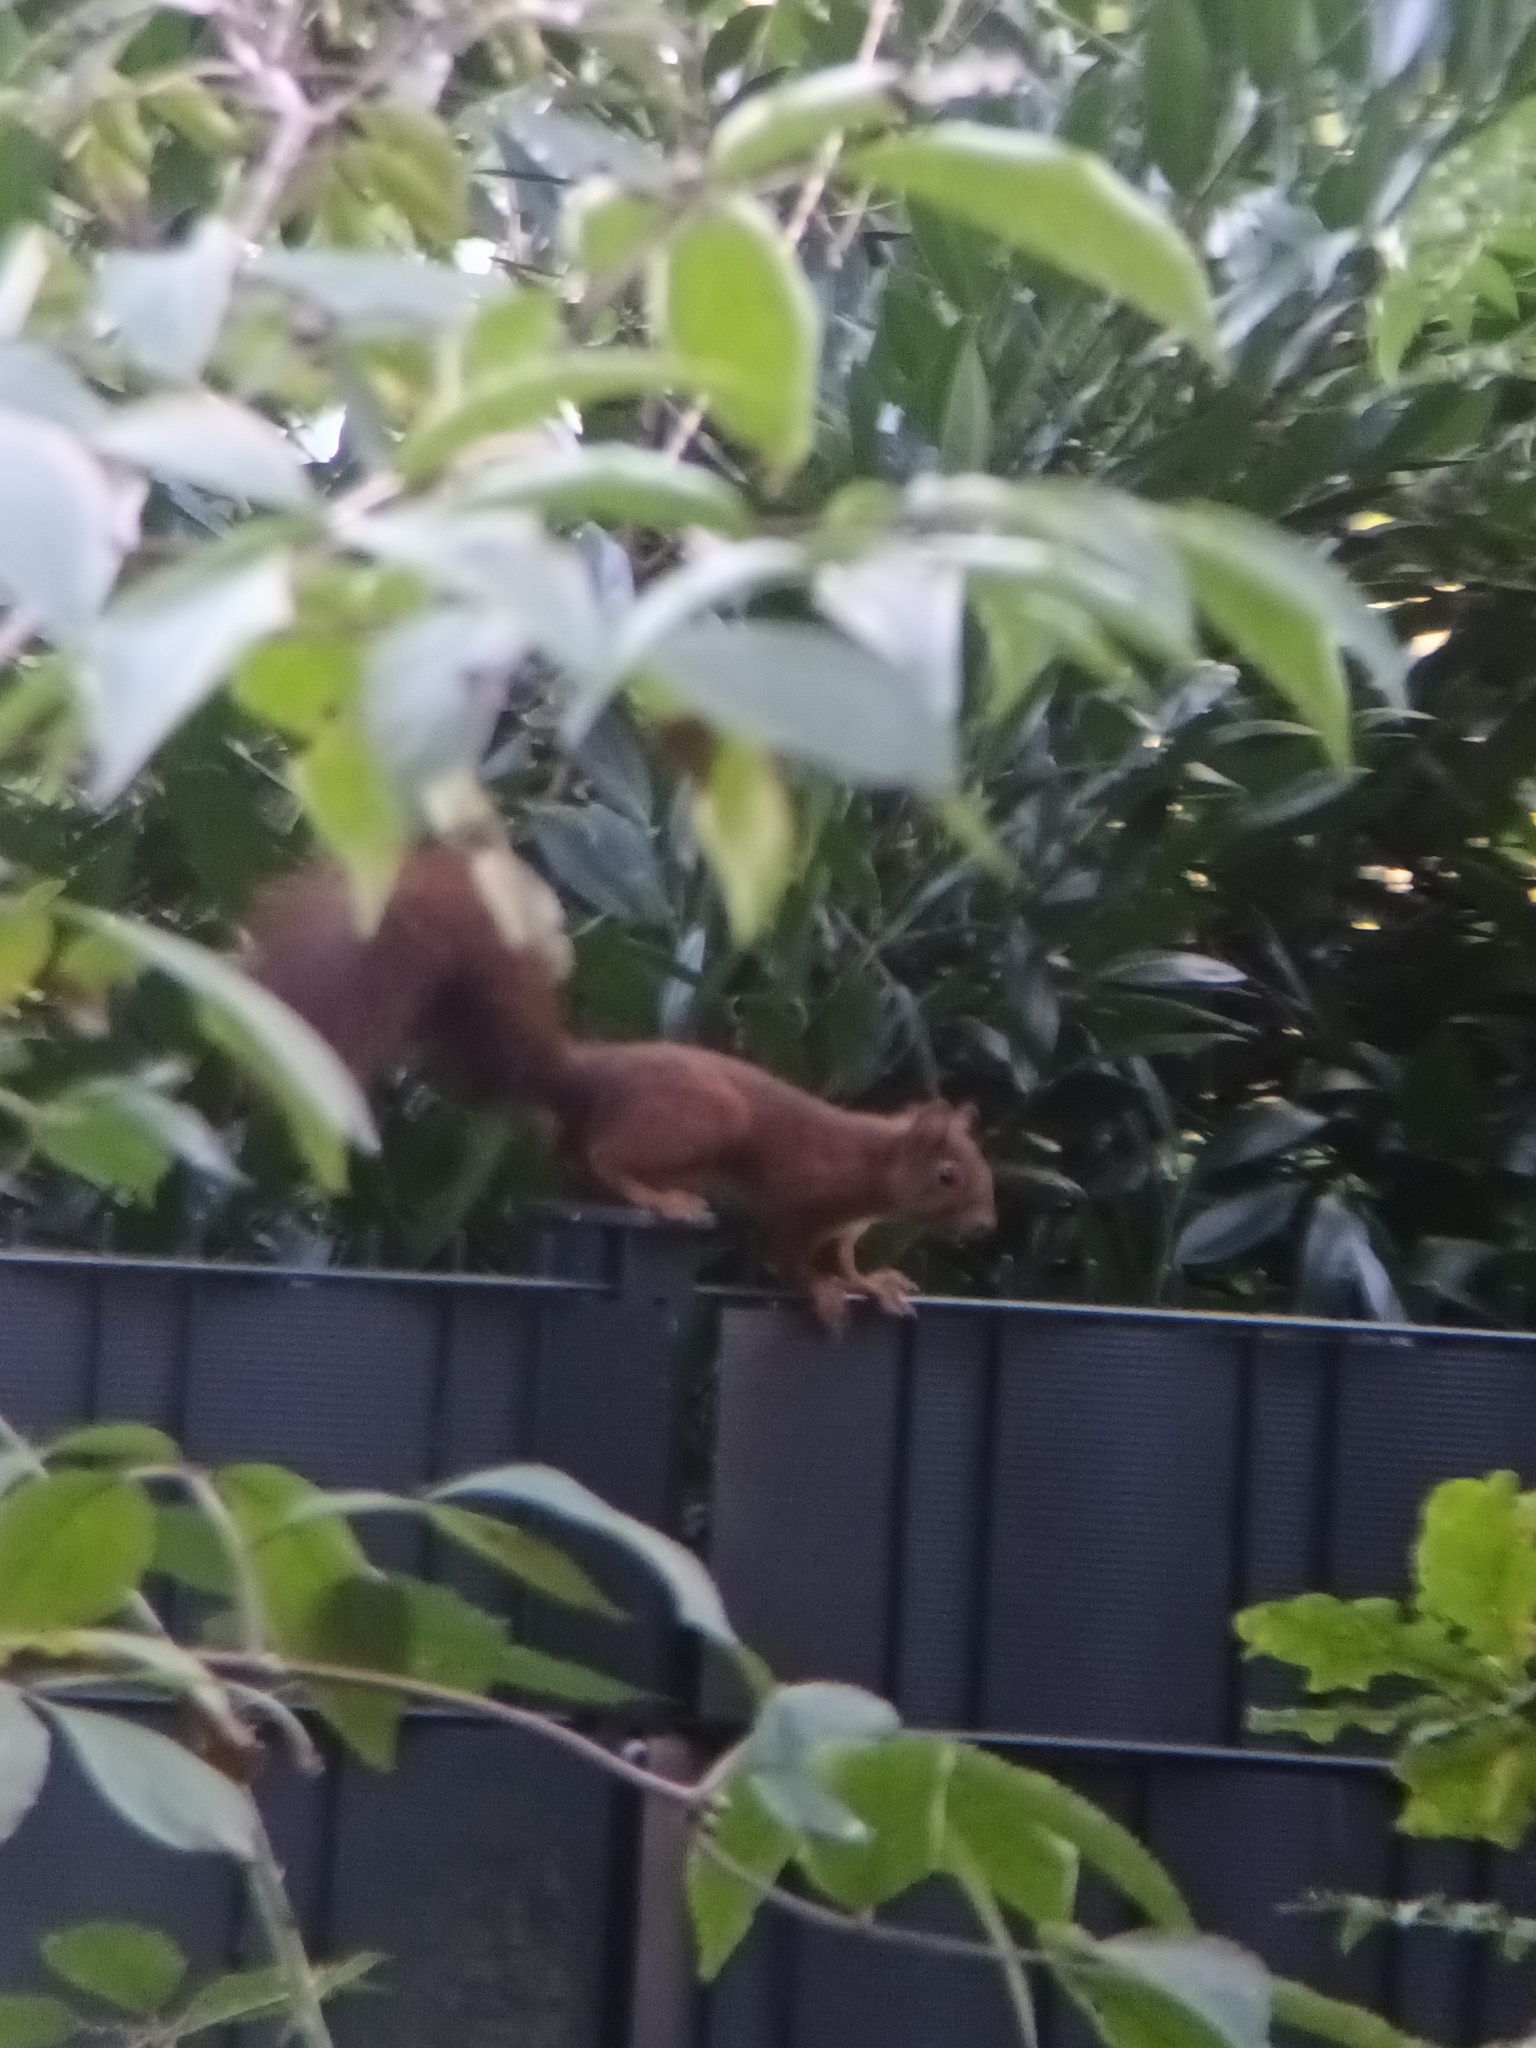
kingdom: Animalia
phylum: Chordata
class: Mammalia
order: Rodentia
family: Sciuridae
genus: Sciurus
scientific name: Sciurus vulgaris
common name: Eurasian red squirrel
